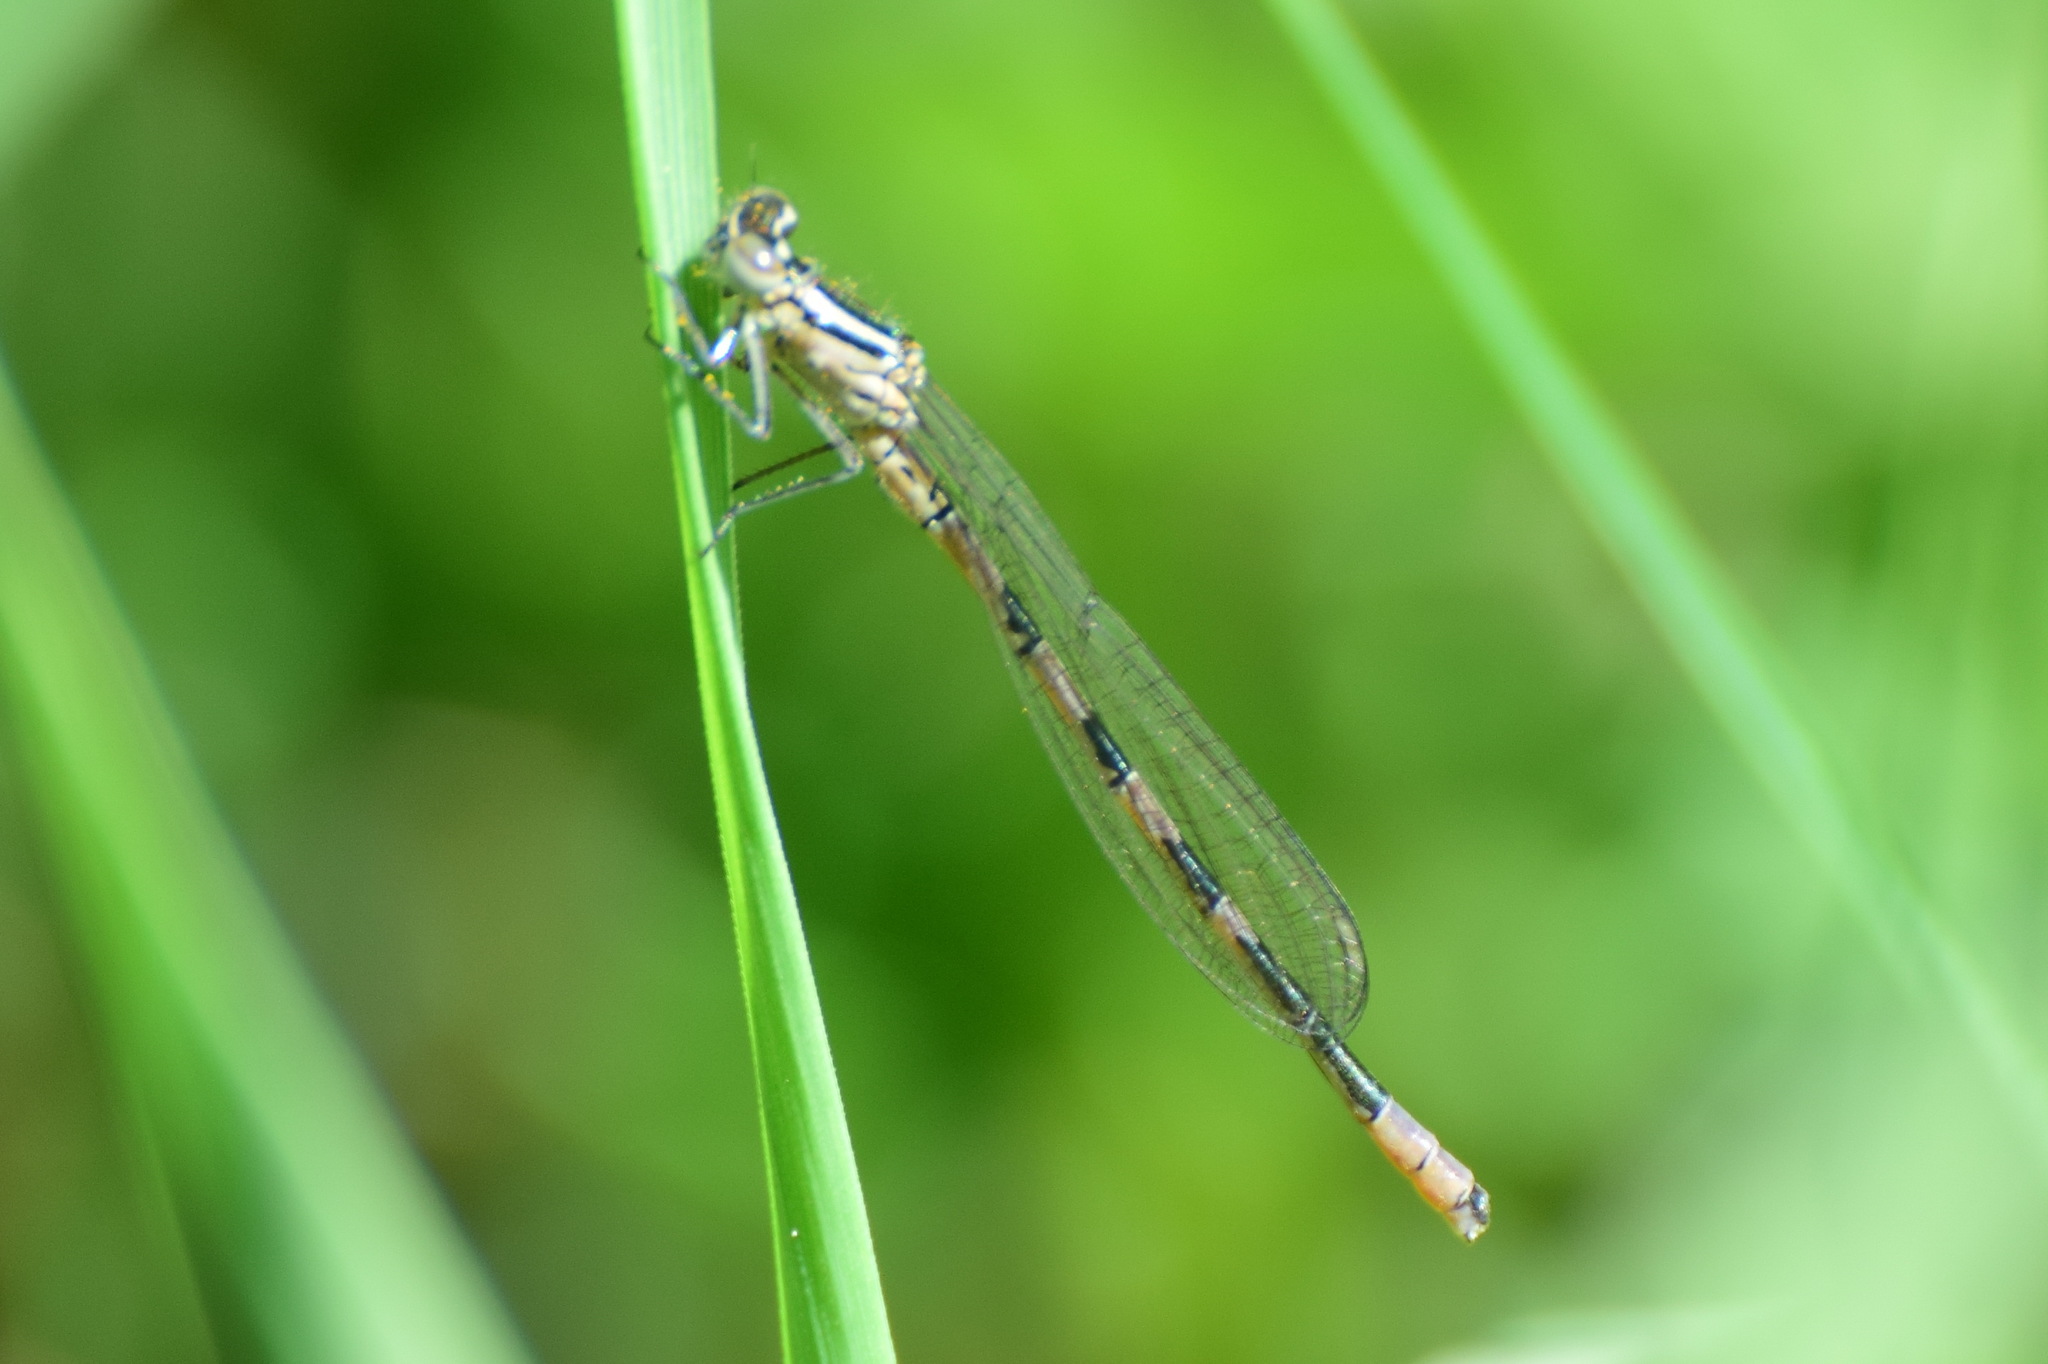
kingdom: Animalia
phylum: Arthropoda
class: Insecta
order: Odonata
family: Coenagrionidae
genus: Coenagrion
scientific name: Coenagrion hastulatum
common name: Spearhead bluet
